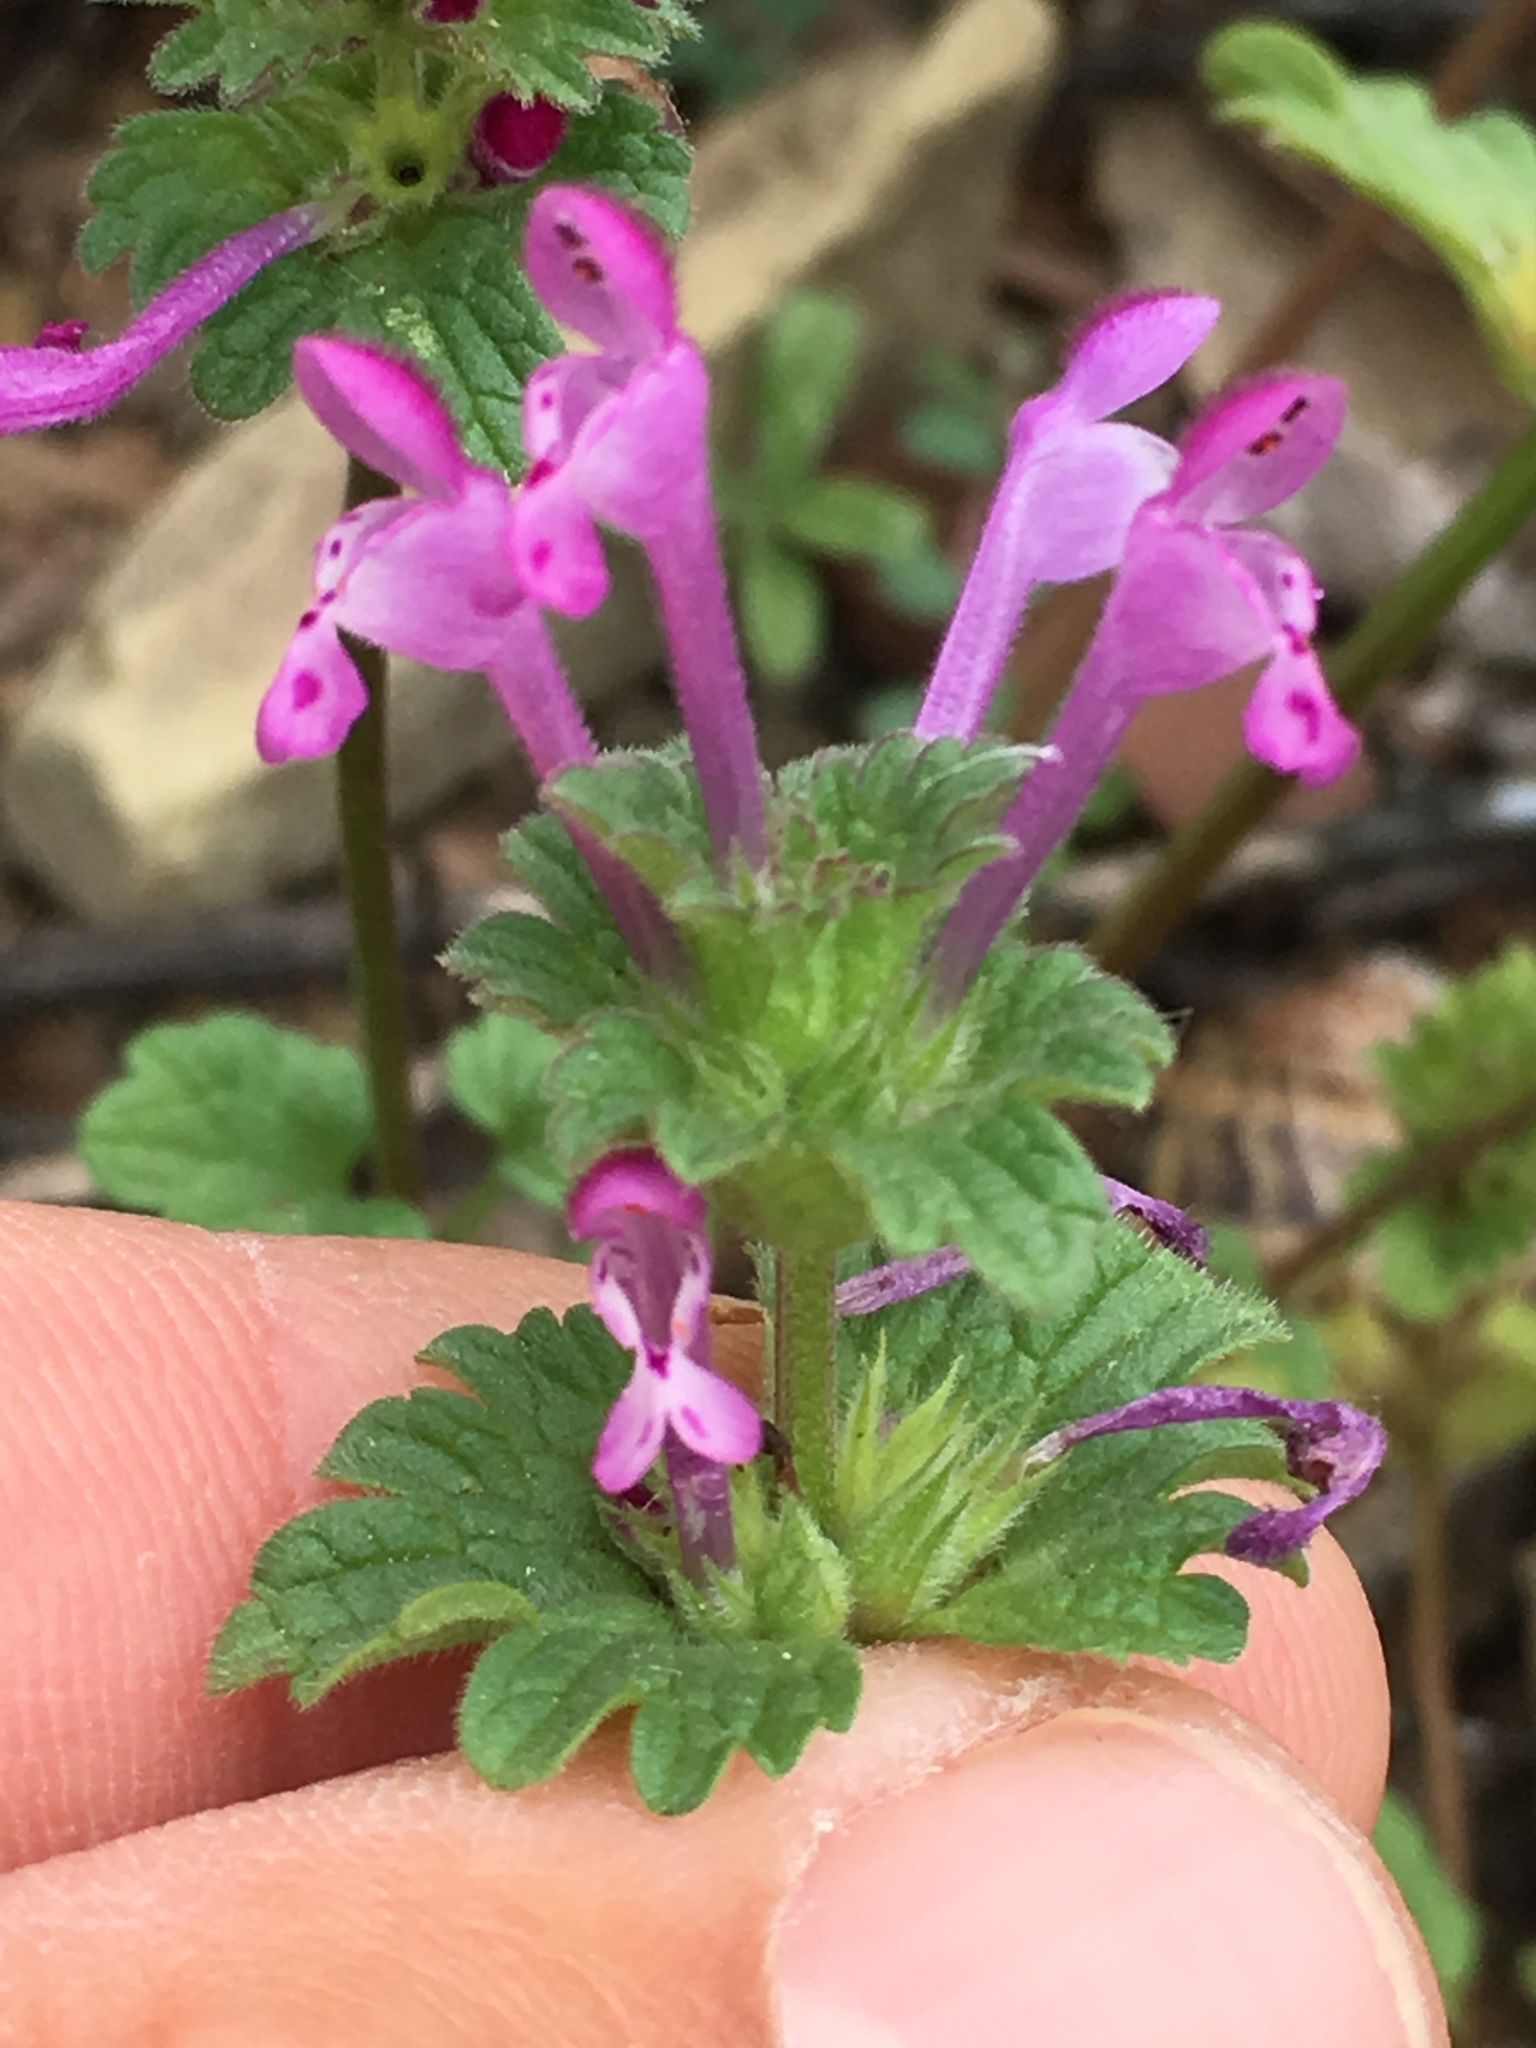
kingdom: Plantae
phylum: Tracheophyta
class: Magnoliopsida
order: Lamiales
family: Lamiaceae
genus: Lamium
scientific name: Lamium amplexicaule
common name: Henbit dead-nettle
